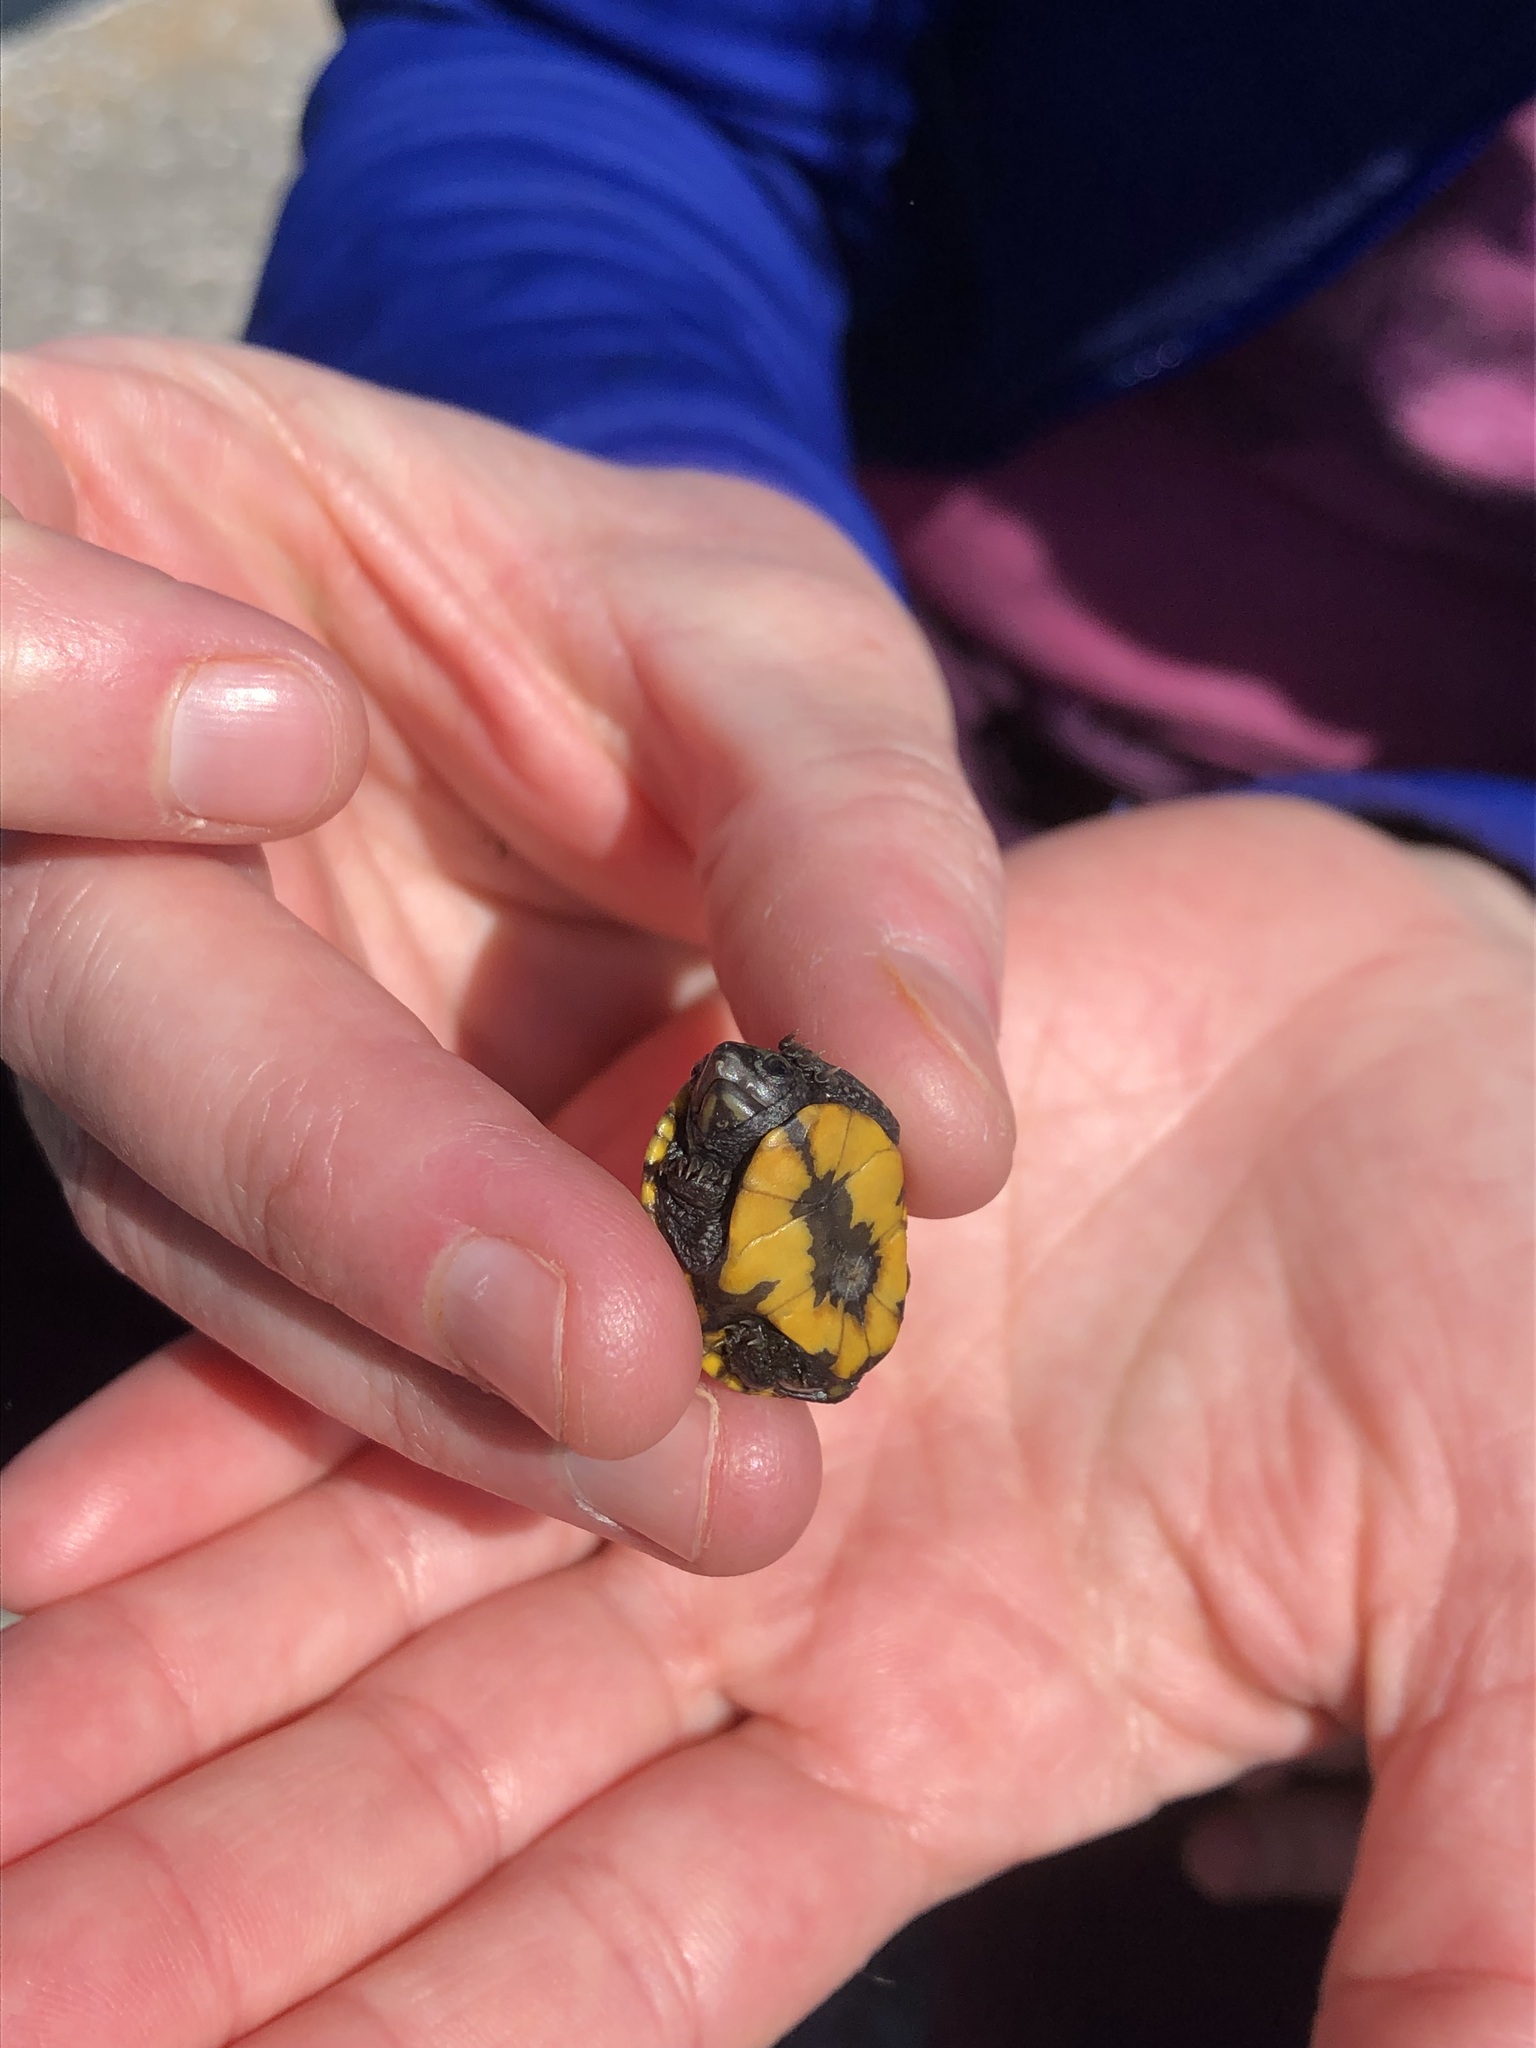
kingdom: Animalia
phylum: Chordata
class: Testudines
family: Kinosternidae
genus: Kinosternon
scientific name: Kinosternon baurii
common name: Striped mud turtle
